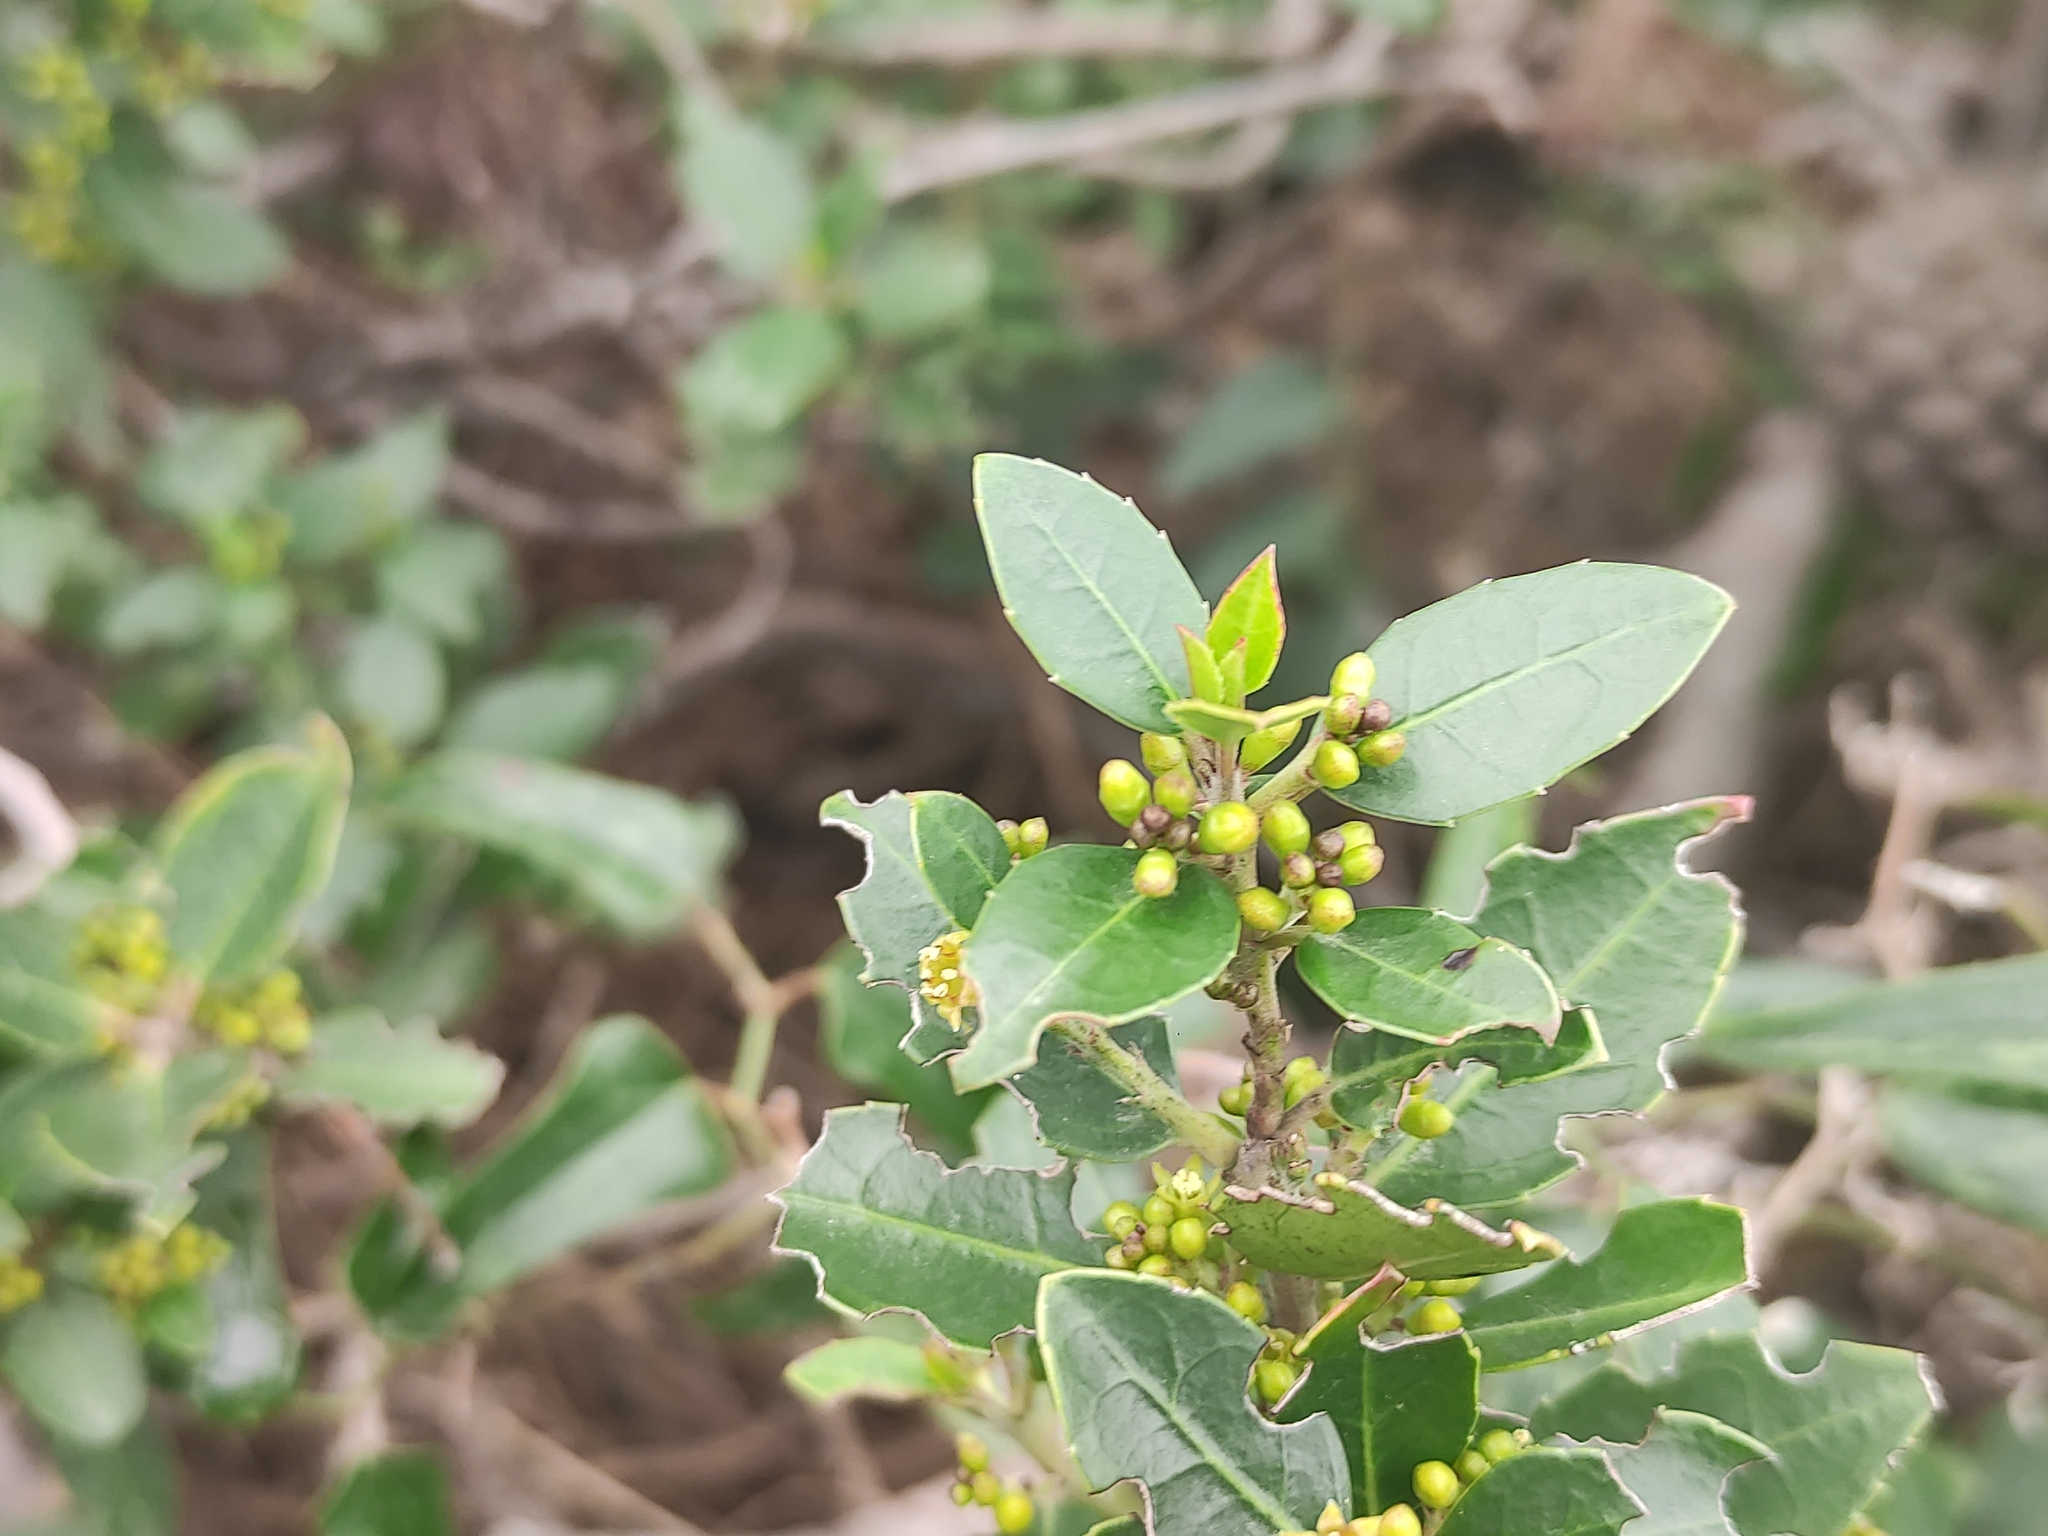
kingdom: Plantae
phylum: Tracheophyta
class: Magnoliopsida
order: Rosales
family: Rhamnaceae
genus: Rhamnus
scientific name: Rhamnus alaternus
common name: Mediterranean buckthorn
